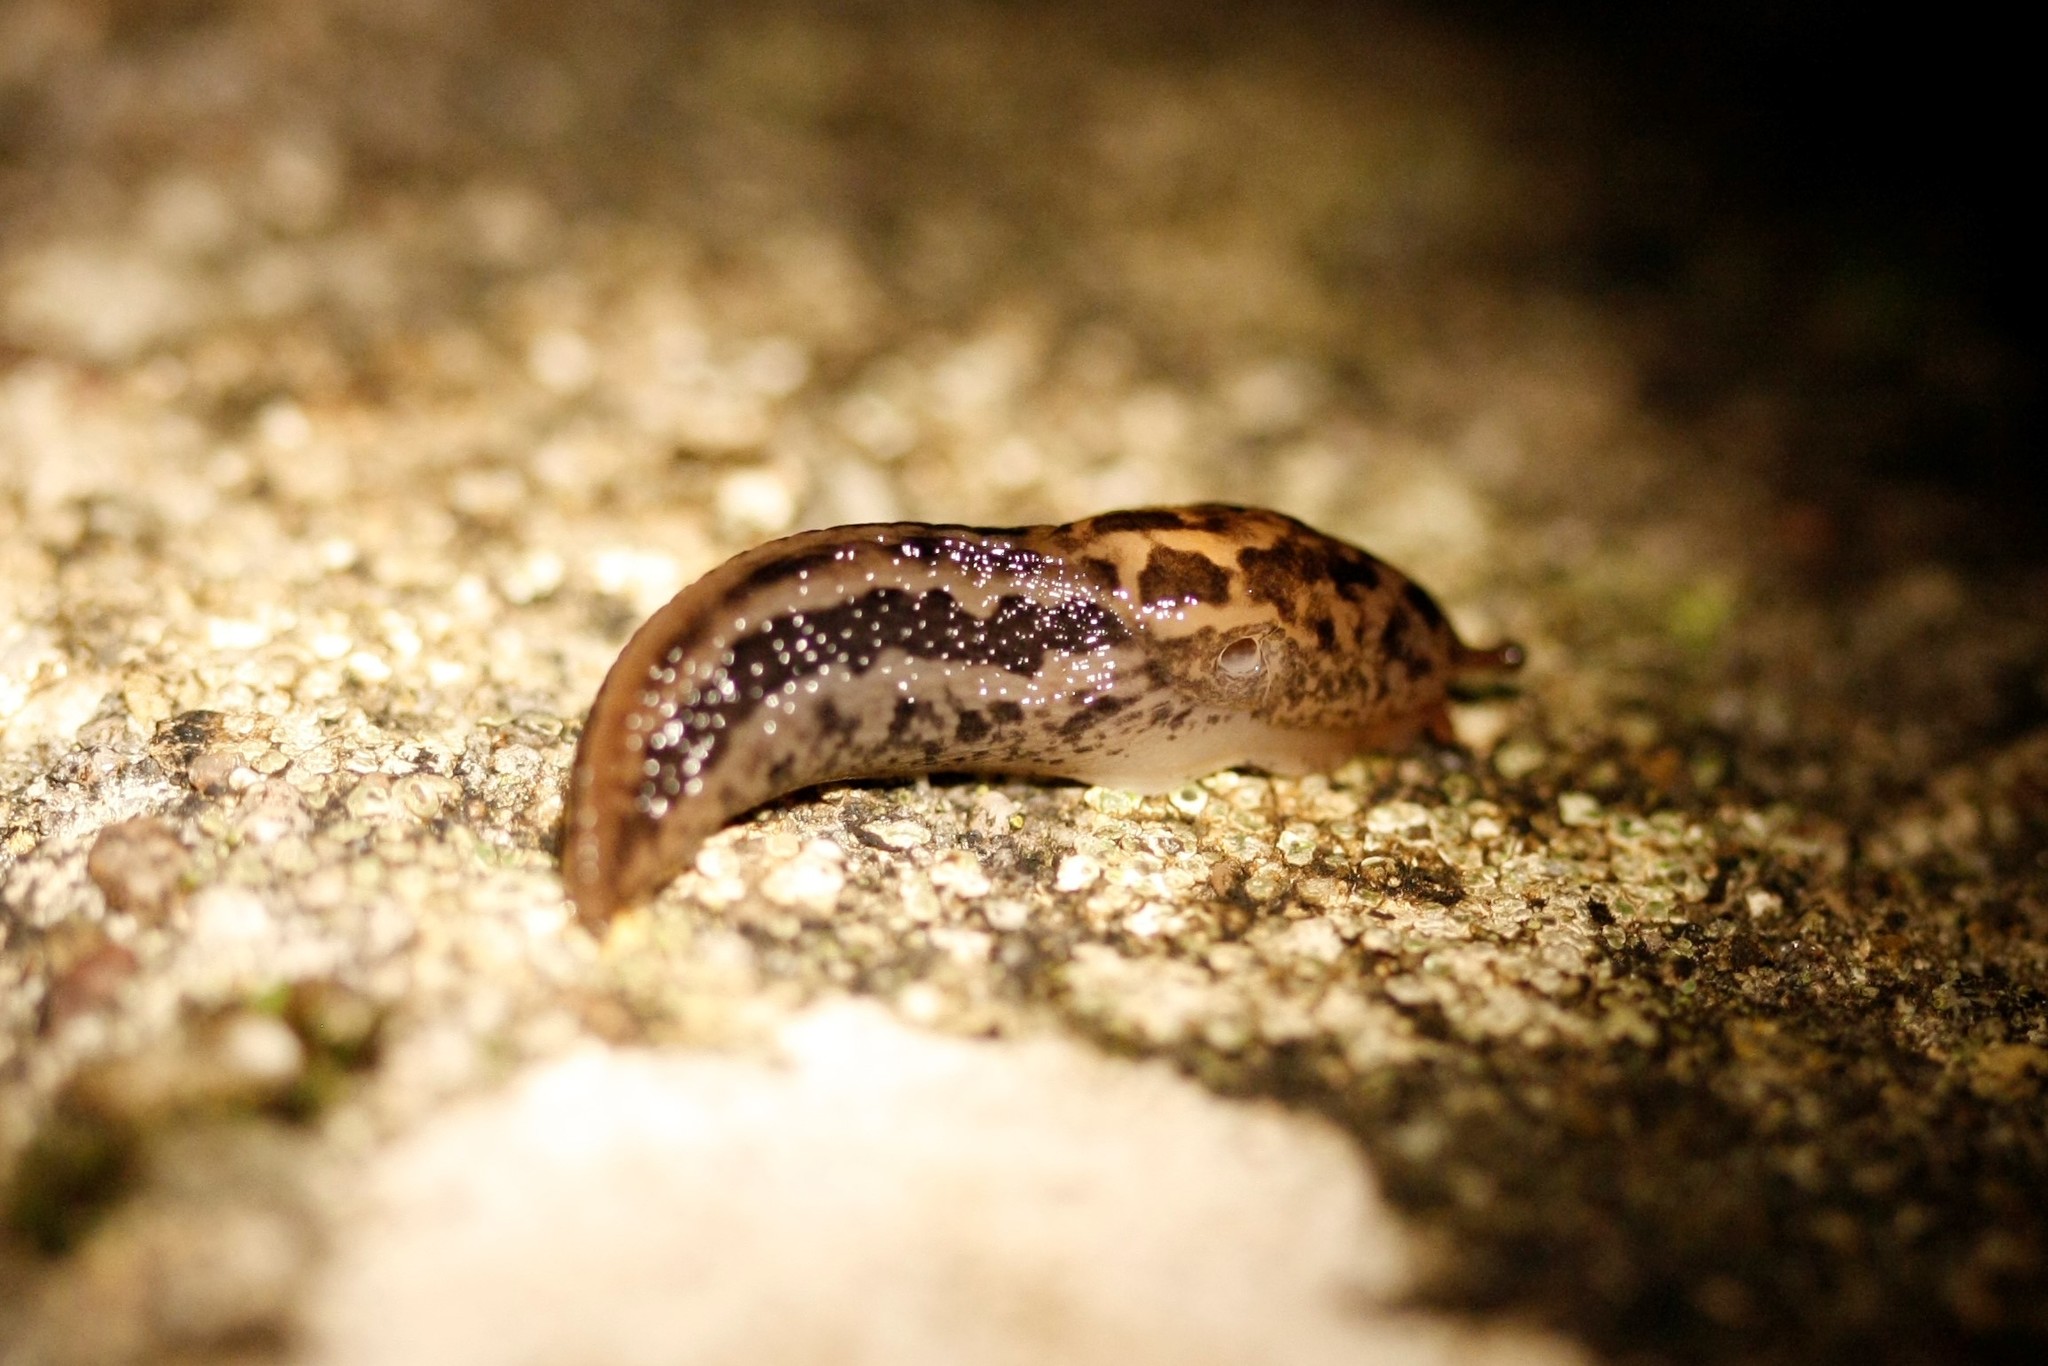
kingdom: Animalia
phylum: Mollusca
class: Gastropoda
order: Stylommatophora
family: Limacidae
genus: Limax
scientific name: Limax maximus
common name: Great grey slug
